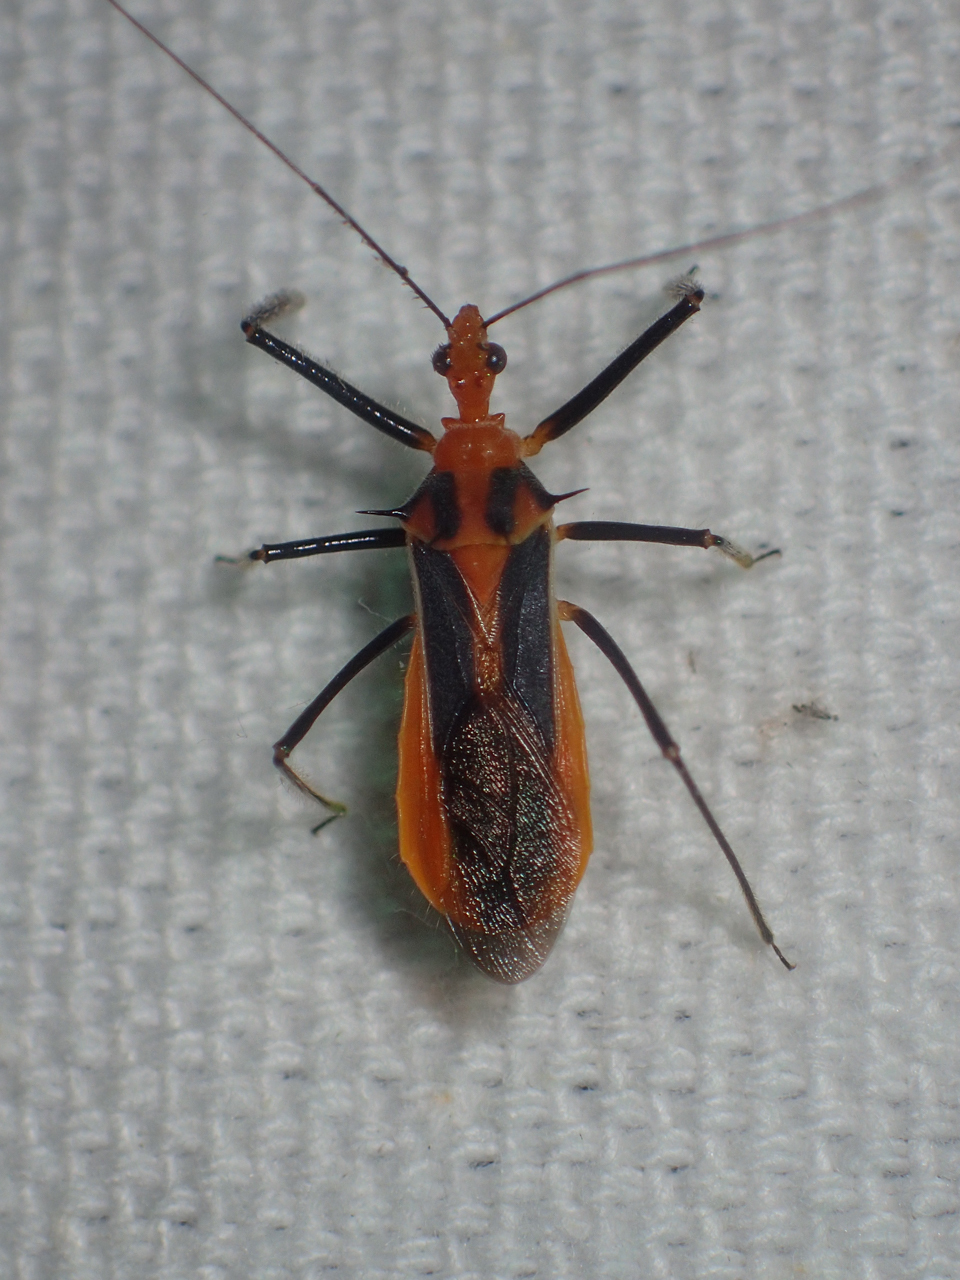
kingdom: Animalia
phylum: Arthropoda
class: Insecta
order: Hemiptera
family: Reduviidae
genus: Repipta
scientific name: Repipta taurus
